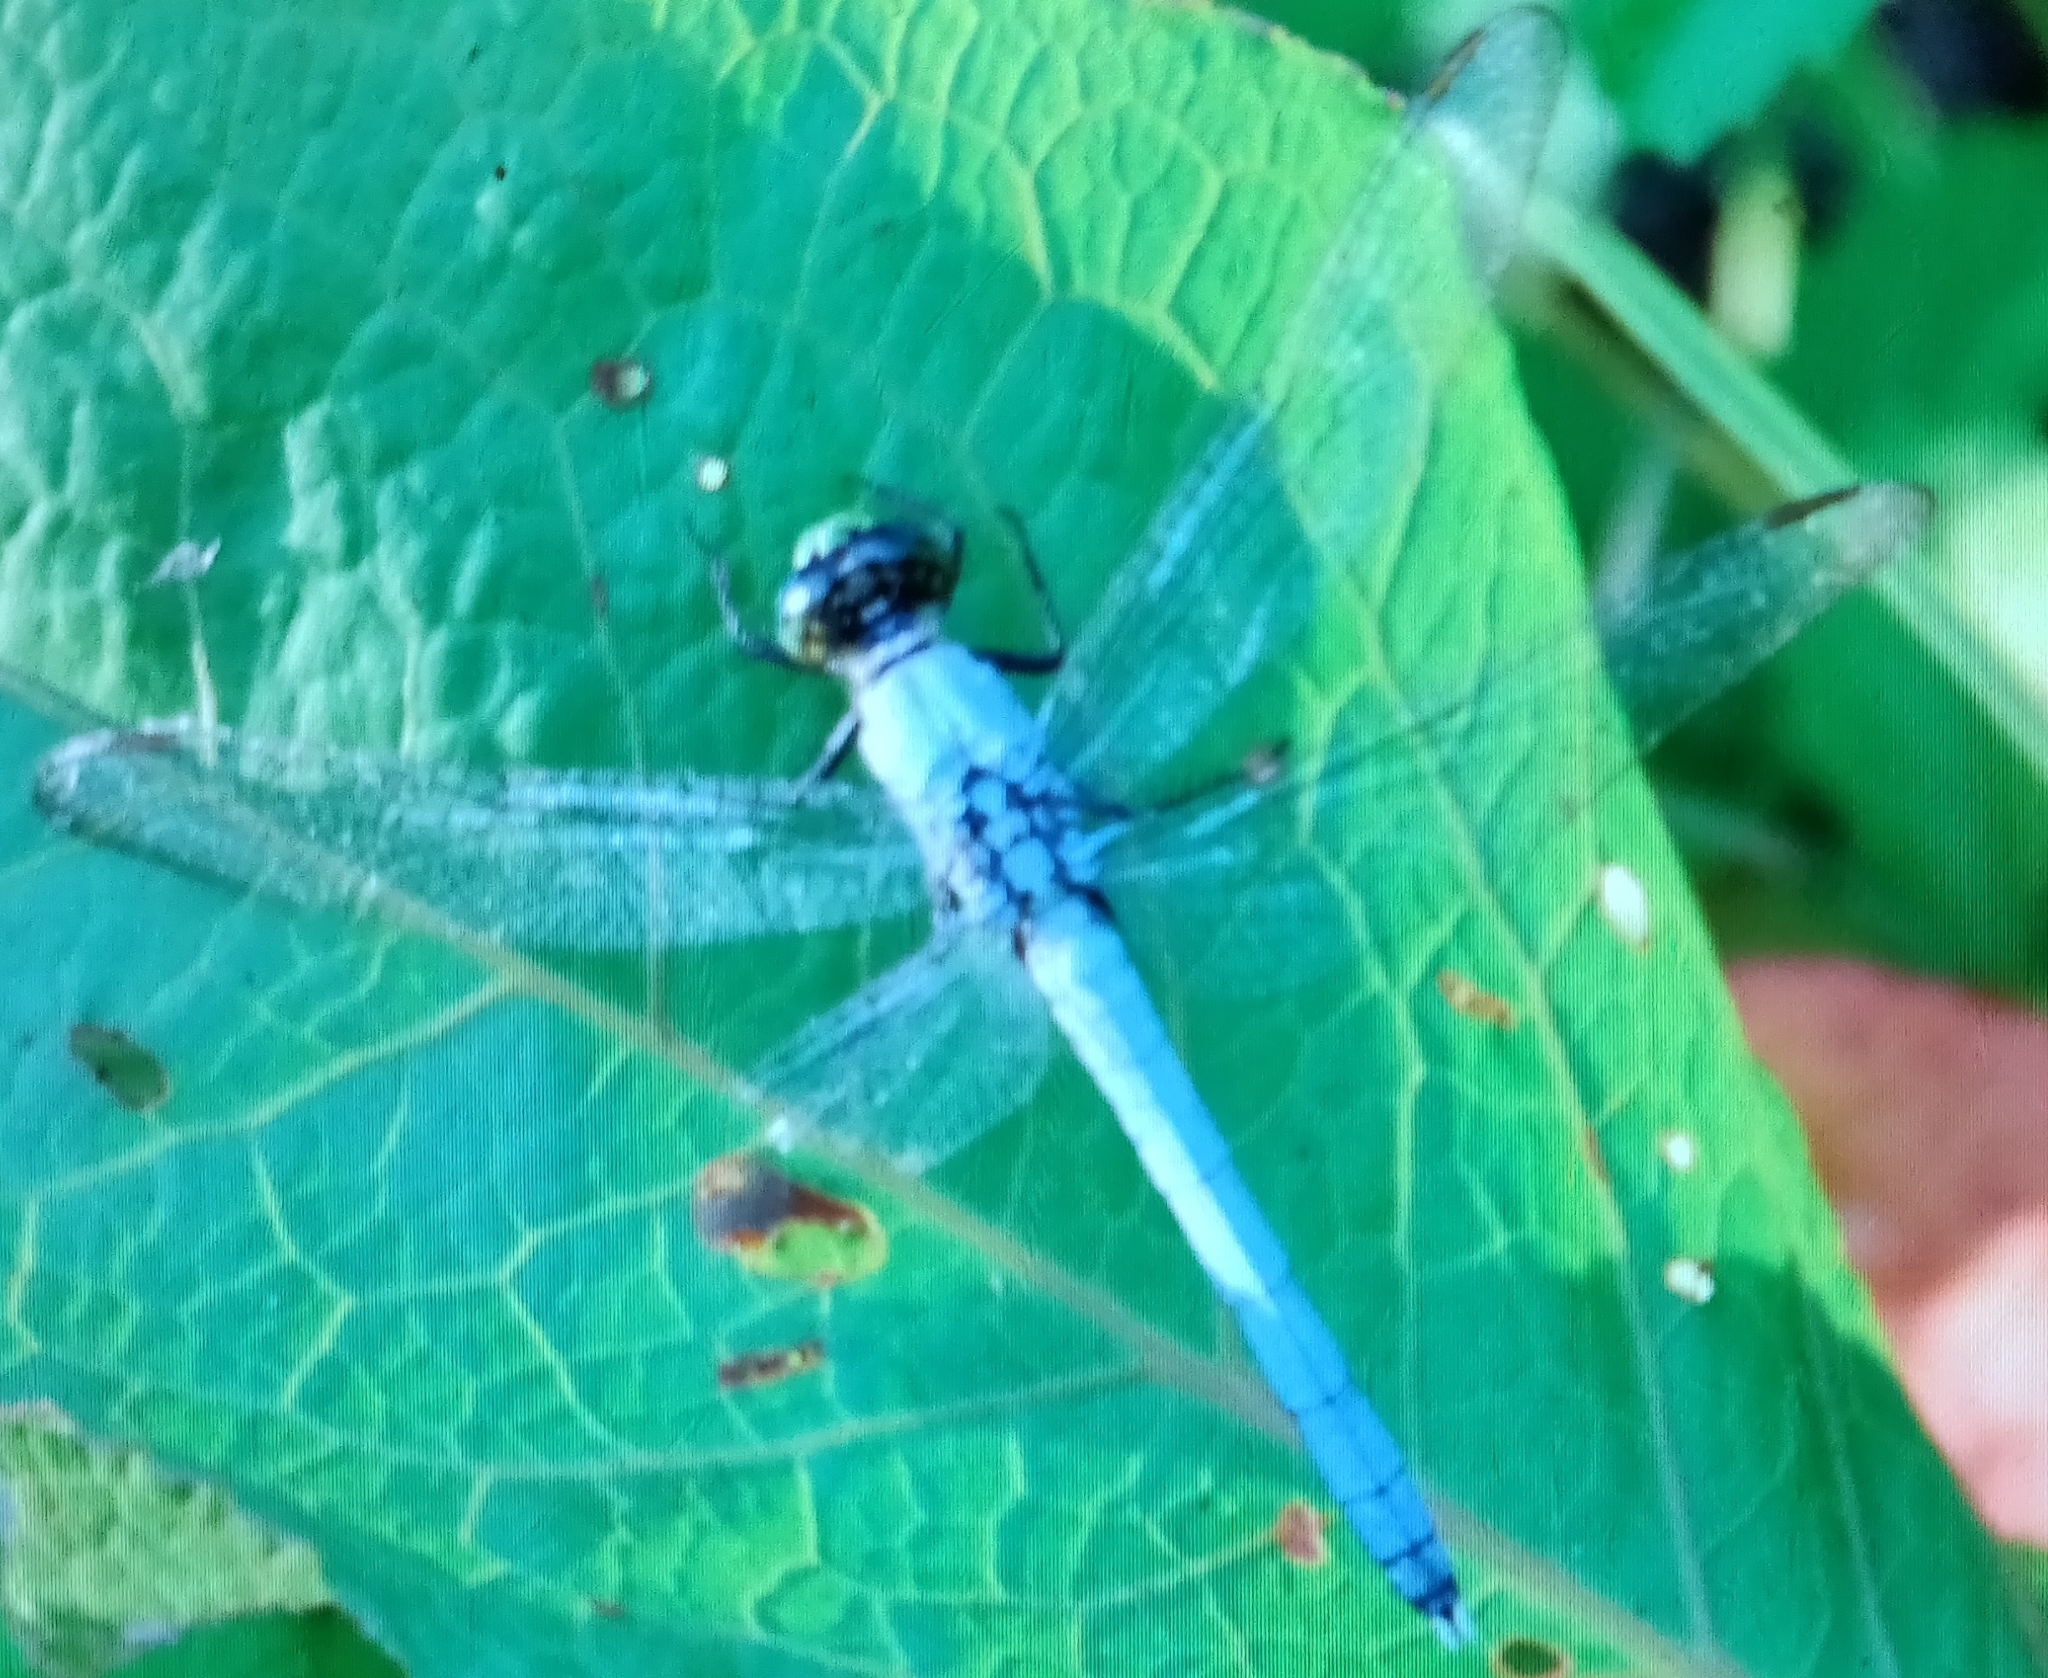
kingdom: Animalia
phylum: Arthropoda
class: Insecta
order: Odonata
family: Libellulidae
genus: Erythemis
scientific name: Erythemis simplicicollis
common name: Eastern pondhawk
